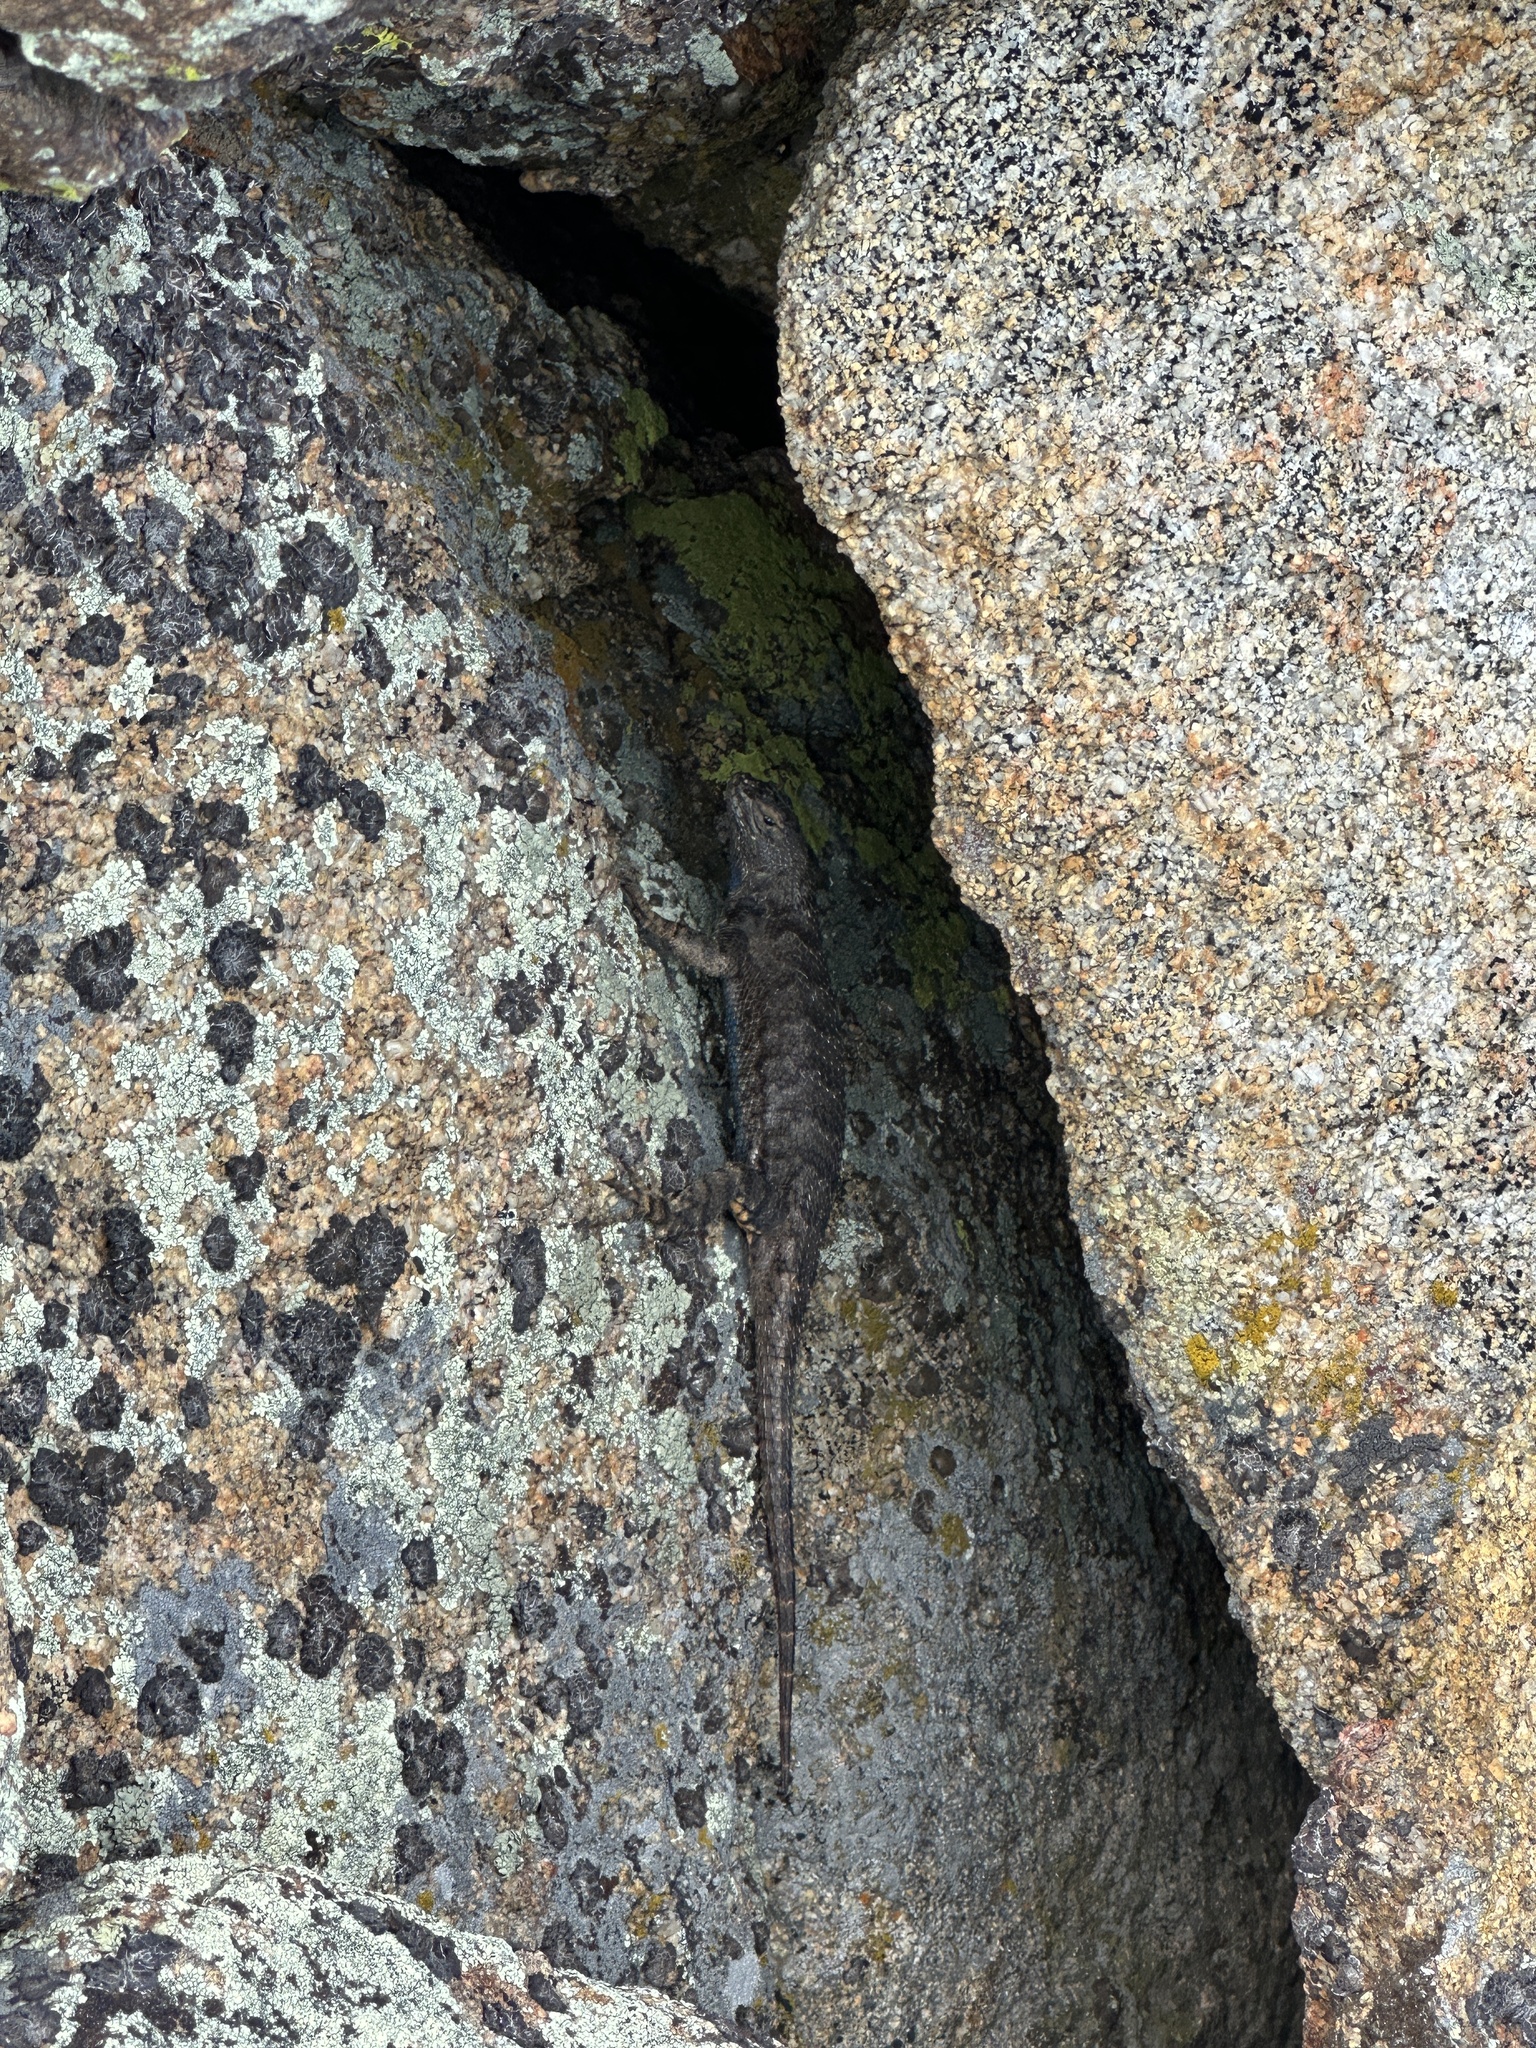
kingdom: Animalia
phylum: Chordata
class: Squamata
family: Phrynosomatidae
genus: Sceloporus
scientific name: Sceloporus occidentalis
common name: Western fence lizard
